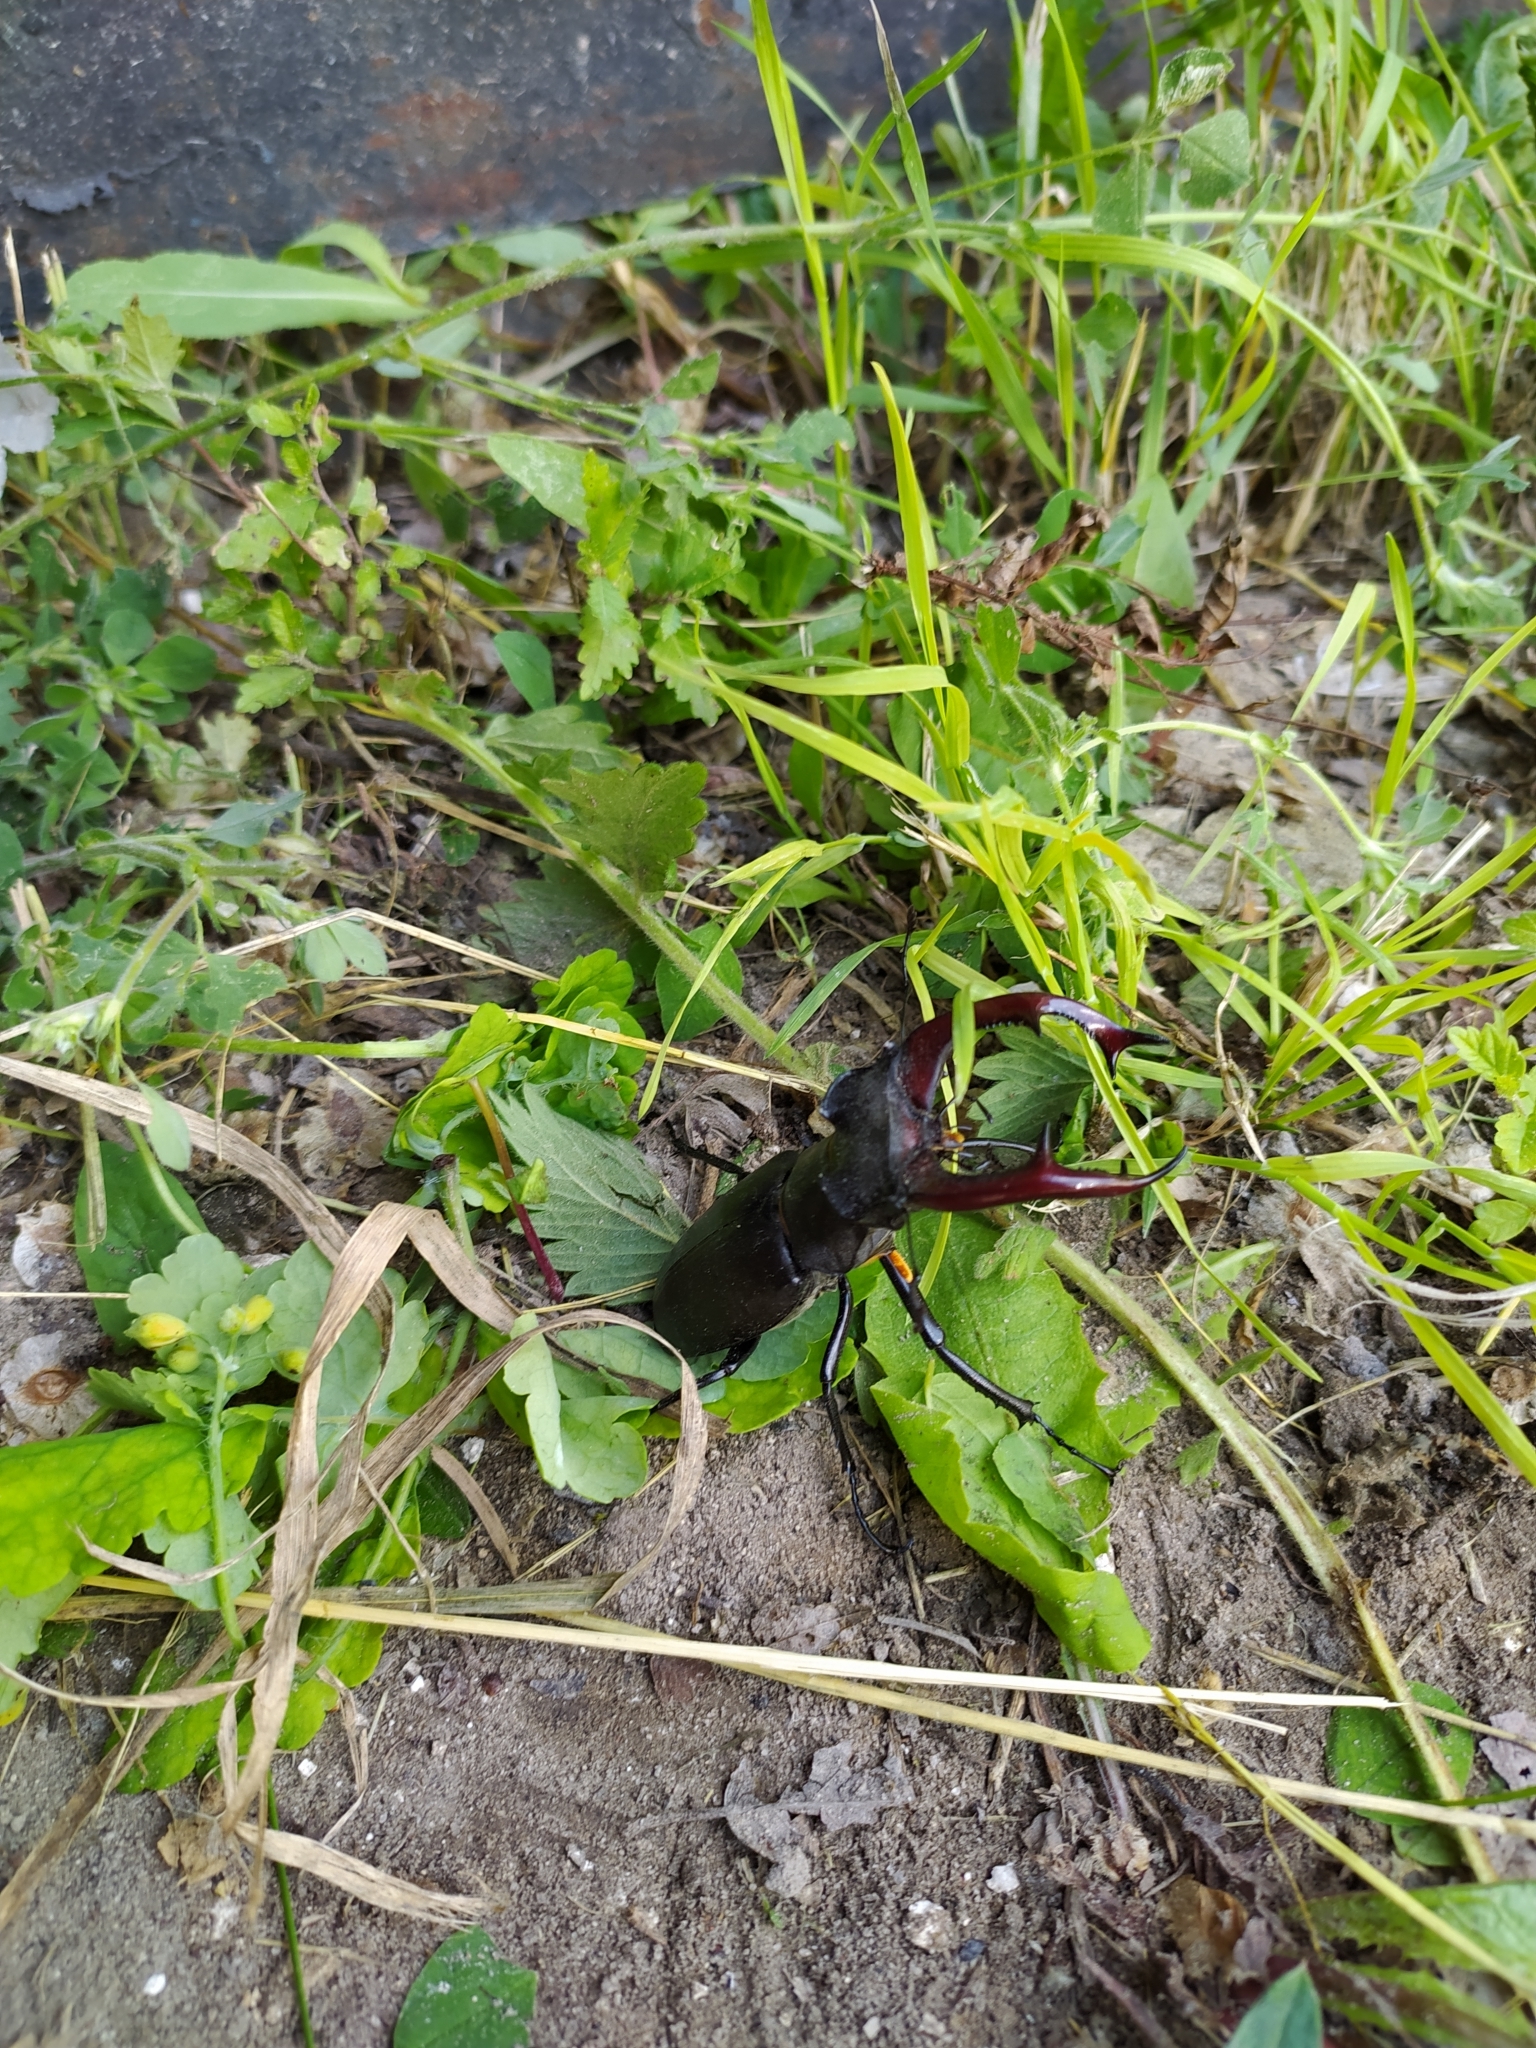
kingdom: Animalia
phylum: Arthropoda
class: Insecta
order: Coleoptera
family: Lucanidae
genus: Lucanus
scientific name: Lucanus cervus
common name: Stag beetle
